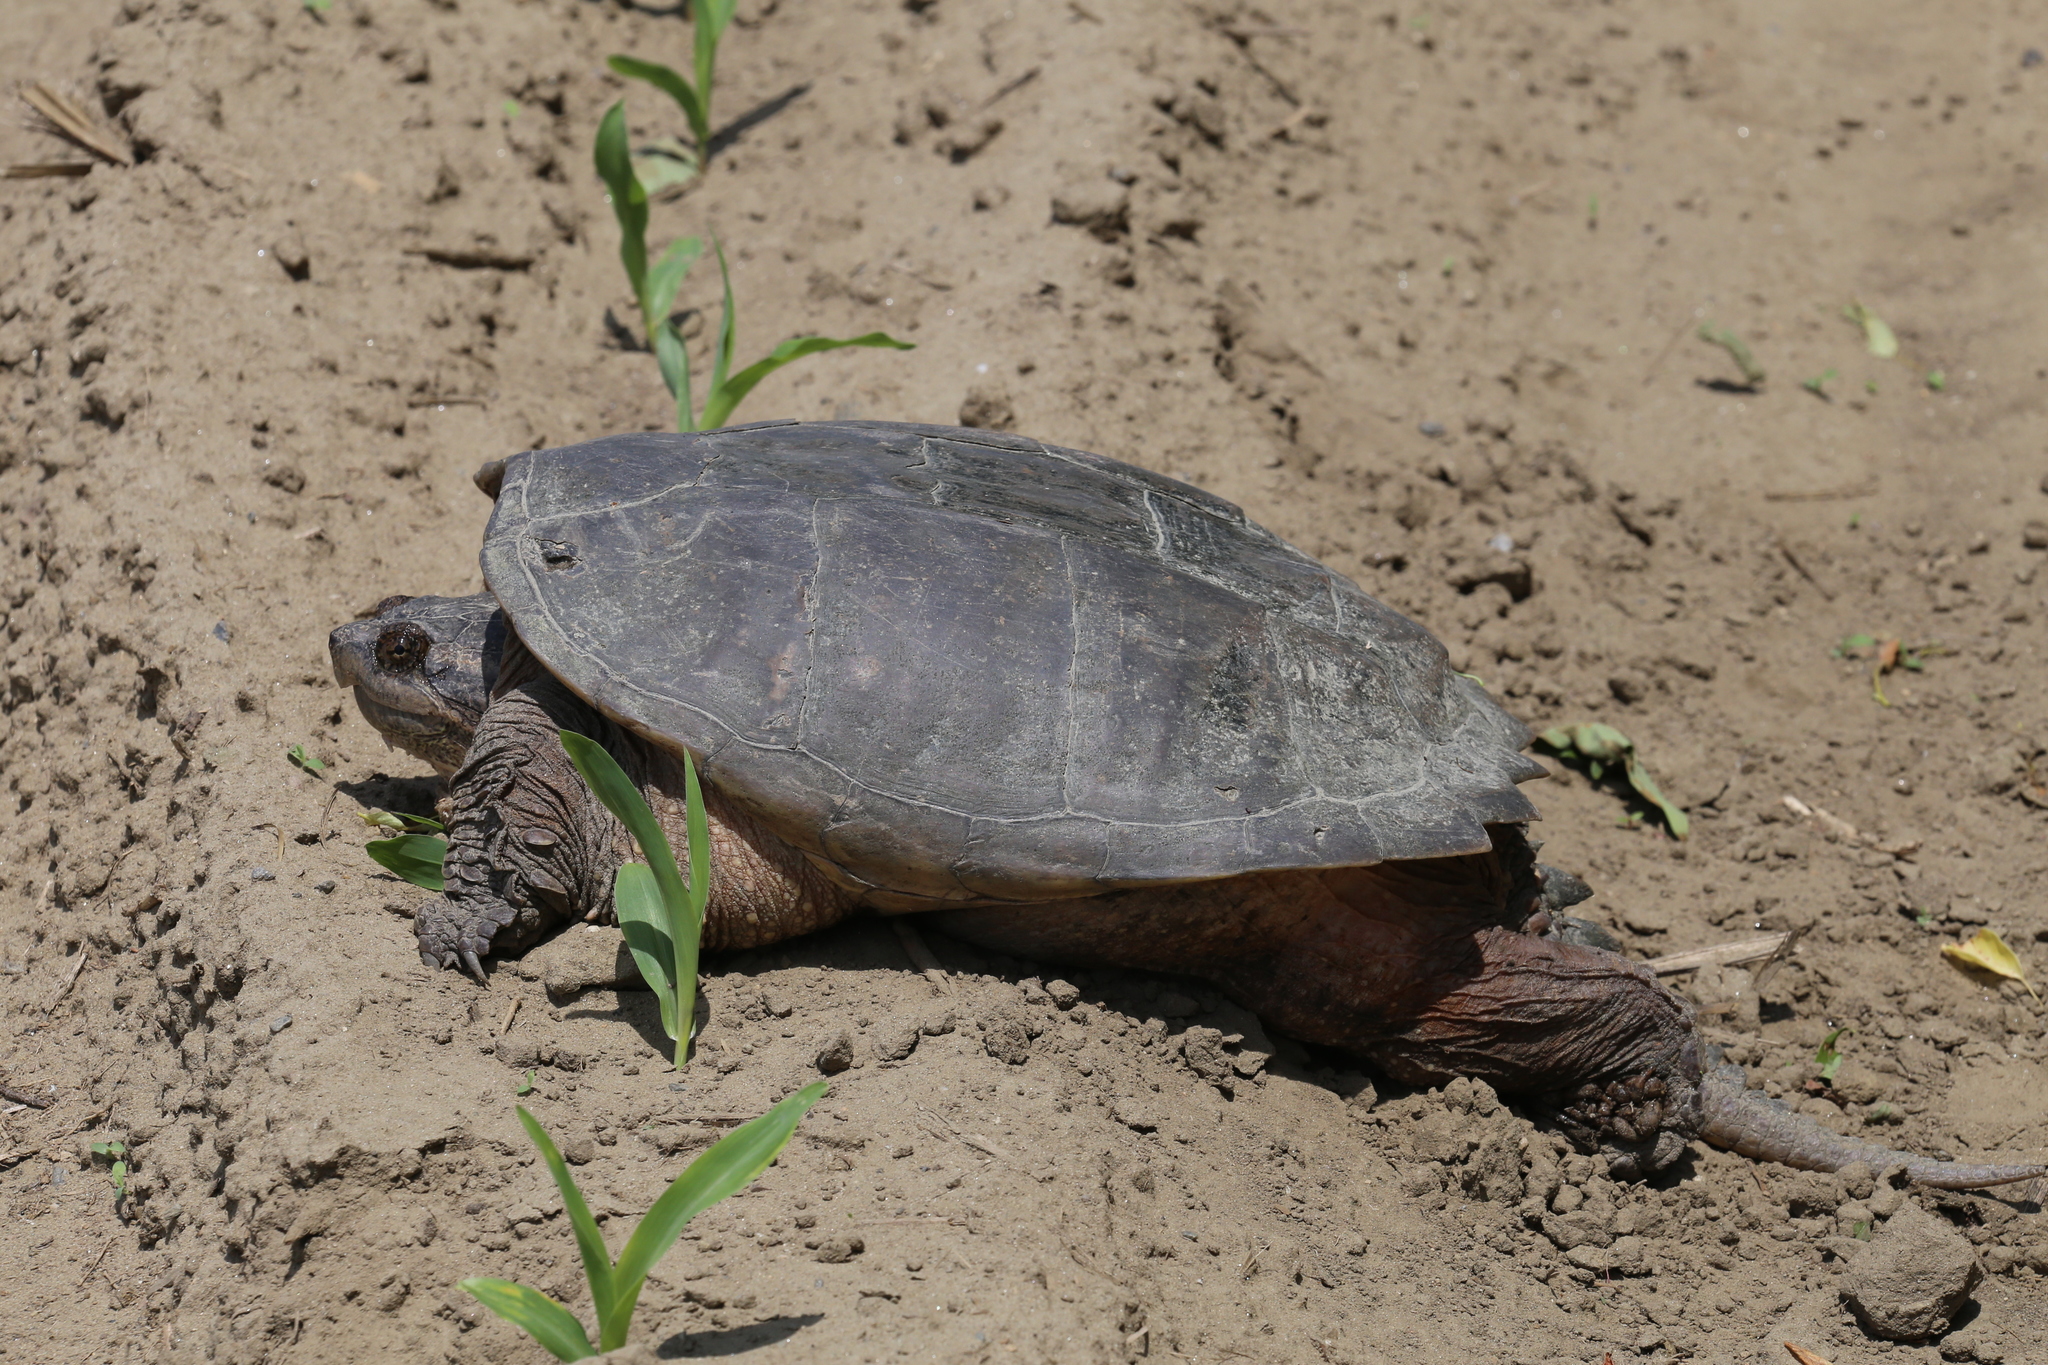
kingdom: Animalia
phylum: Chordata
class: Testudines
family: Chelydridae
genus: Chelydra
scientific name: Chelydra serpentina
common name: Common snapping turtle
